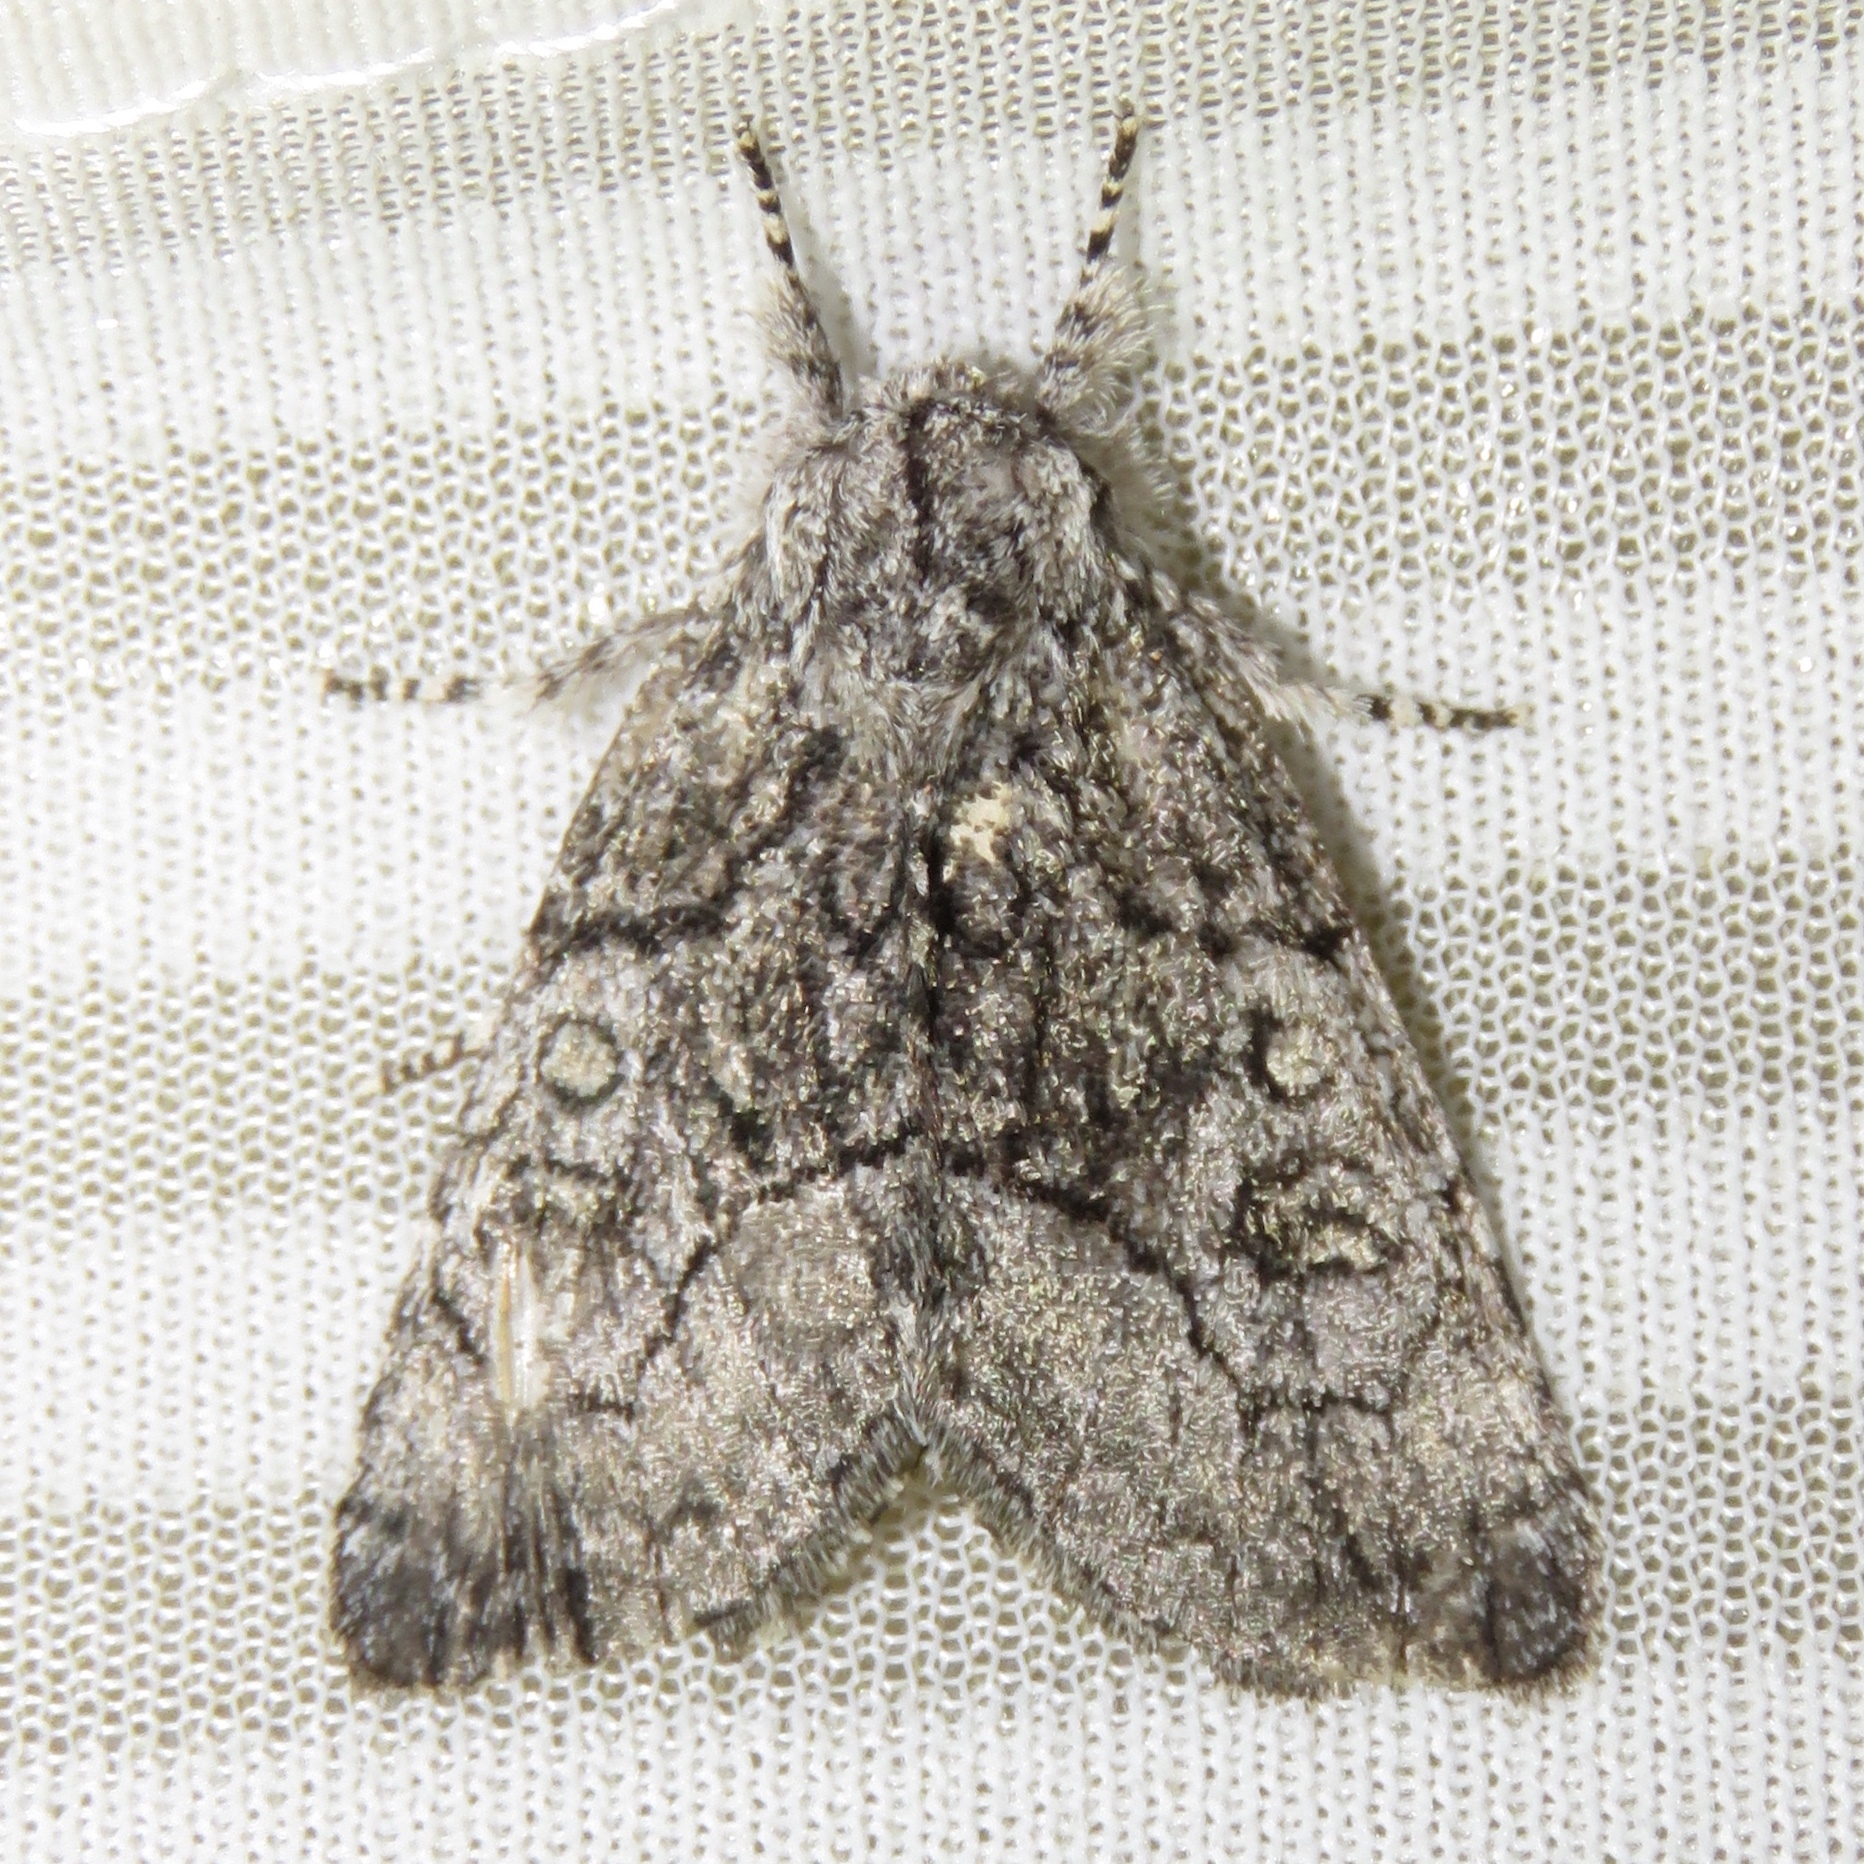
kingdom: Animalia
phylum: Arthropoda
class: Insecta
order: Lepidoptera
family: Noctuidae
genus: Raphia
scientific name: Raphia frater
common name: Brother
